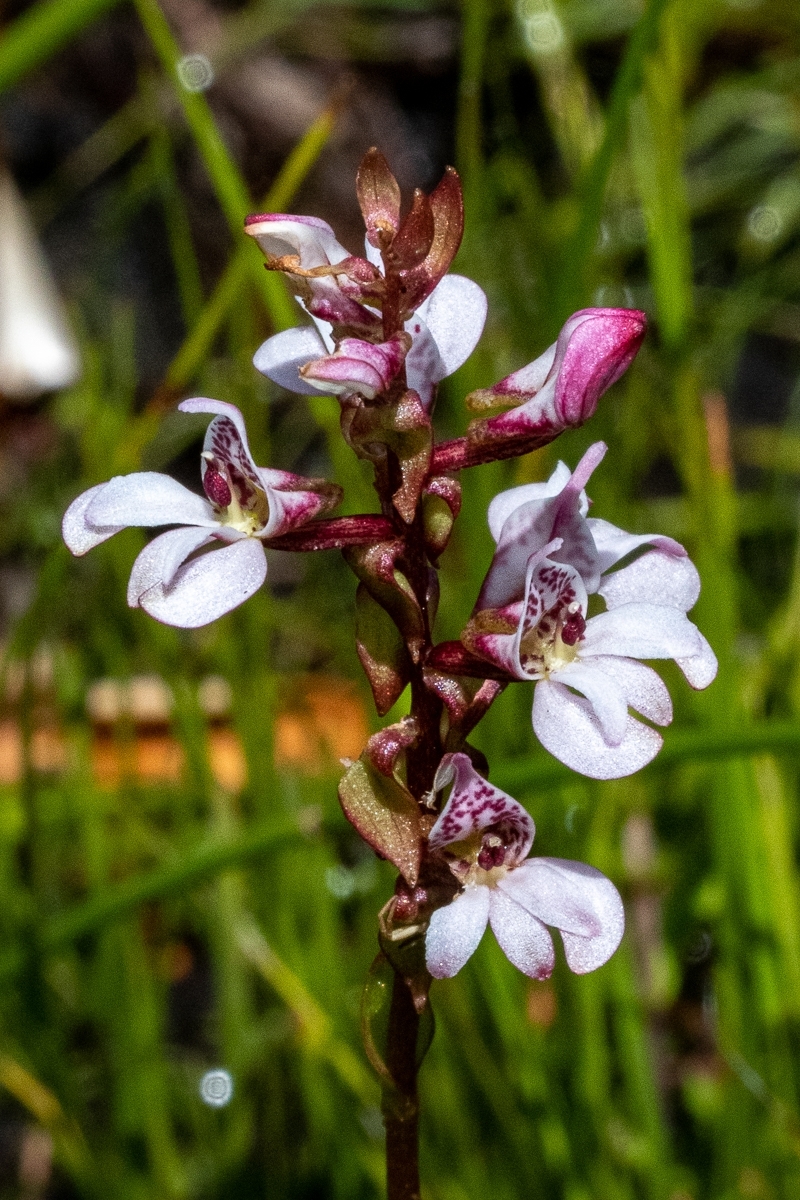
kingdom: Plantae
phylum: Tracheophyta
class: Liliopsida
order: Asparagales
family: Orchidaceae
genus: Satyrium
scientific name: Satyrium rhynchanthum
